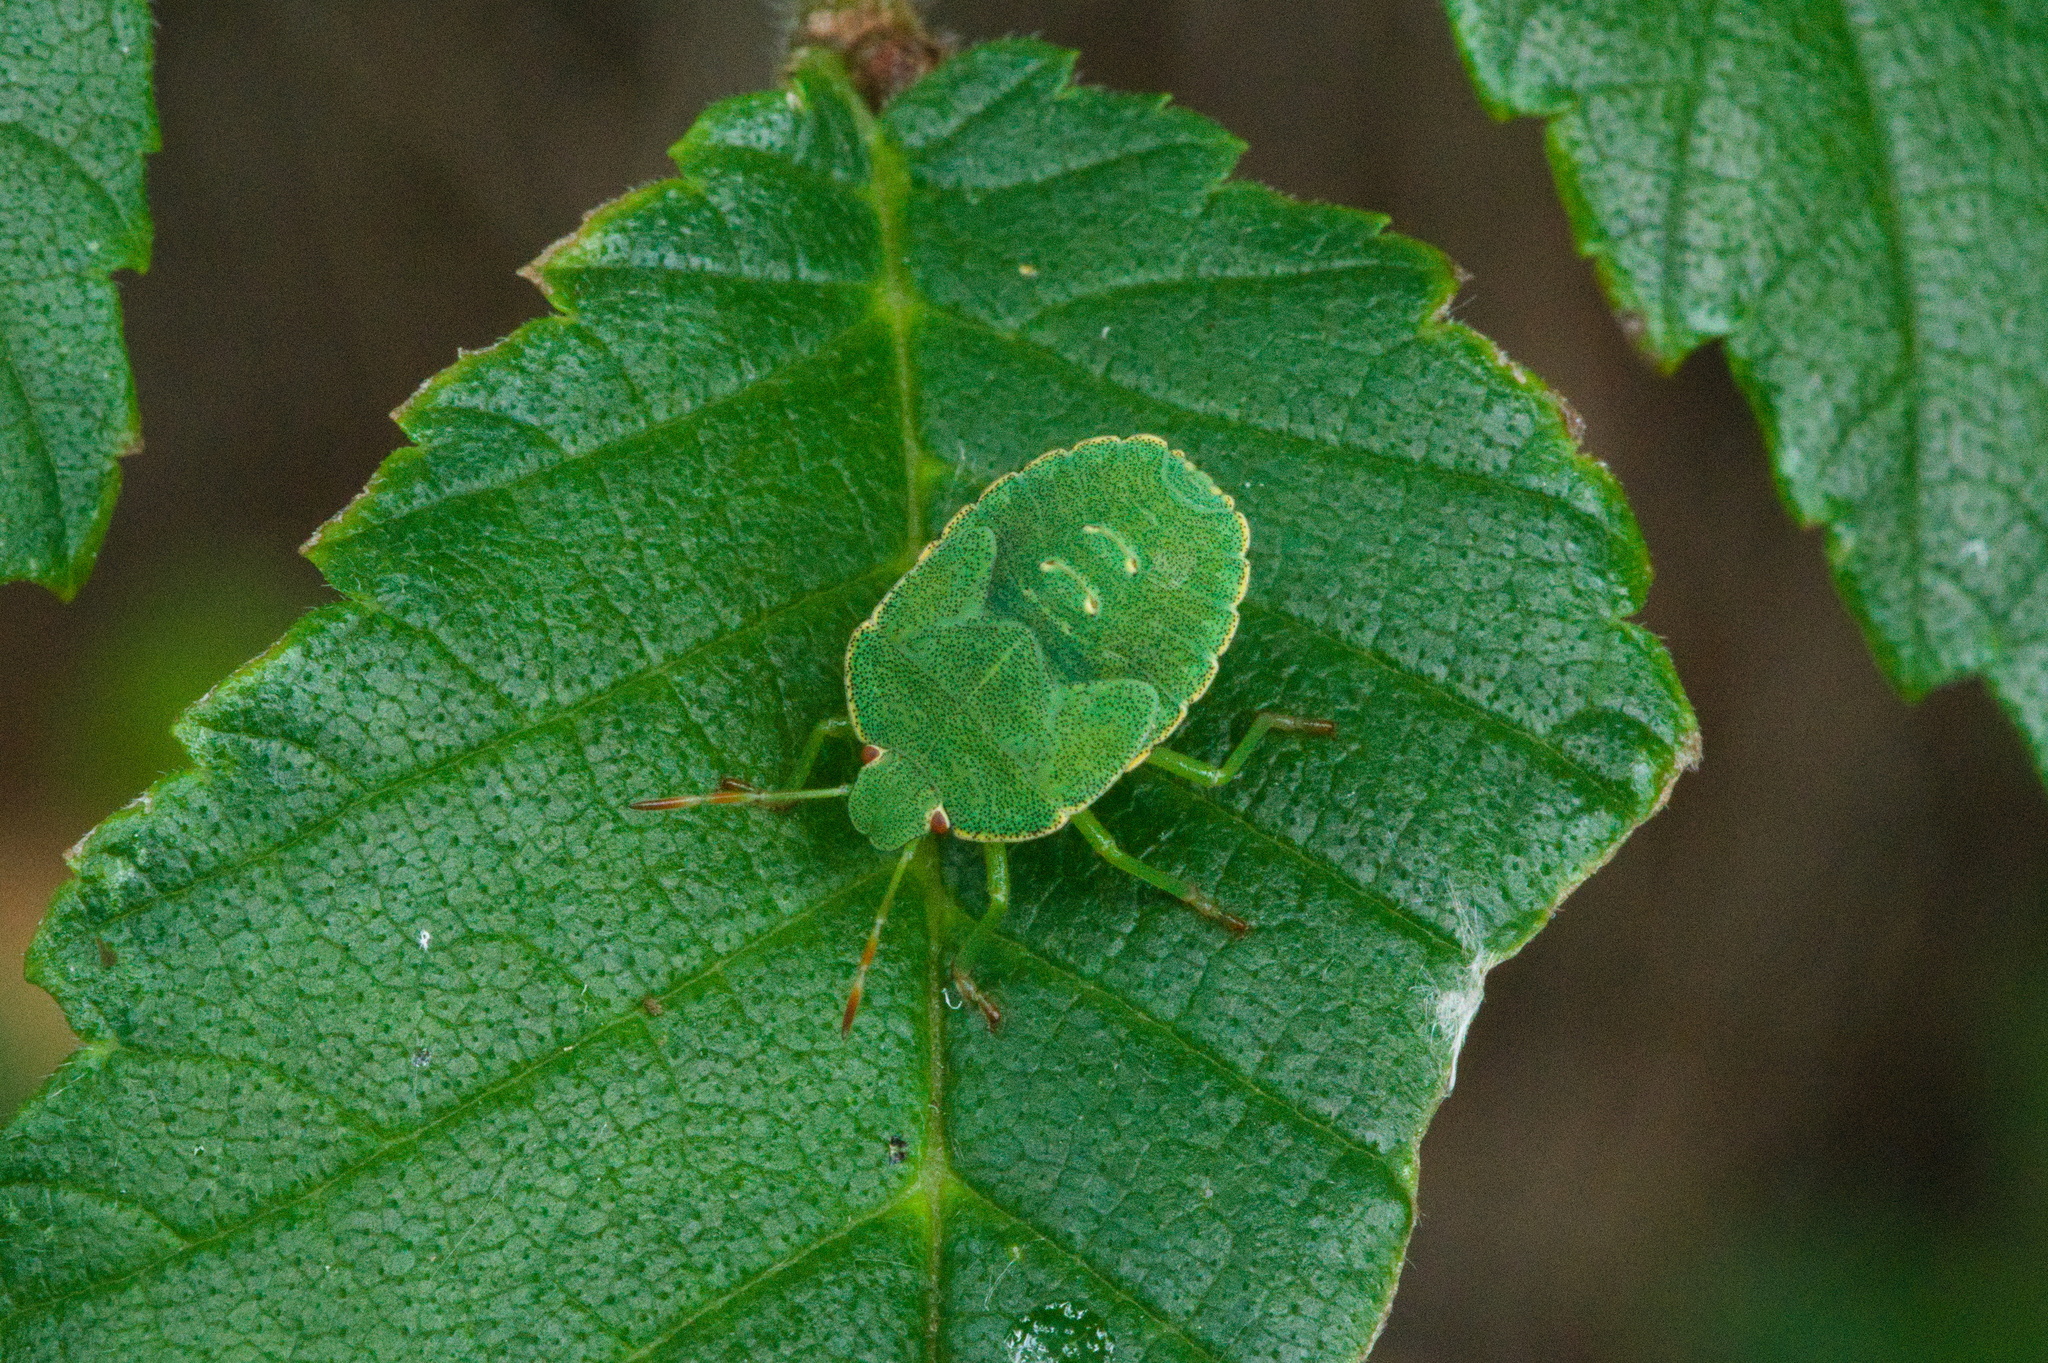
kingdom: Animalia
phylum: Arthropoda
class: Insecta
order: Hemiptera
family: Pentatomidae
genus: Palomena
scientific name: Palomena prasina
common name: Green shieldbug
